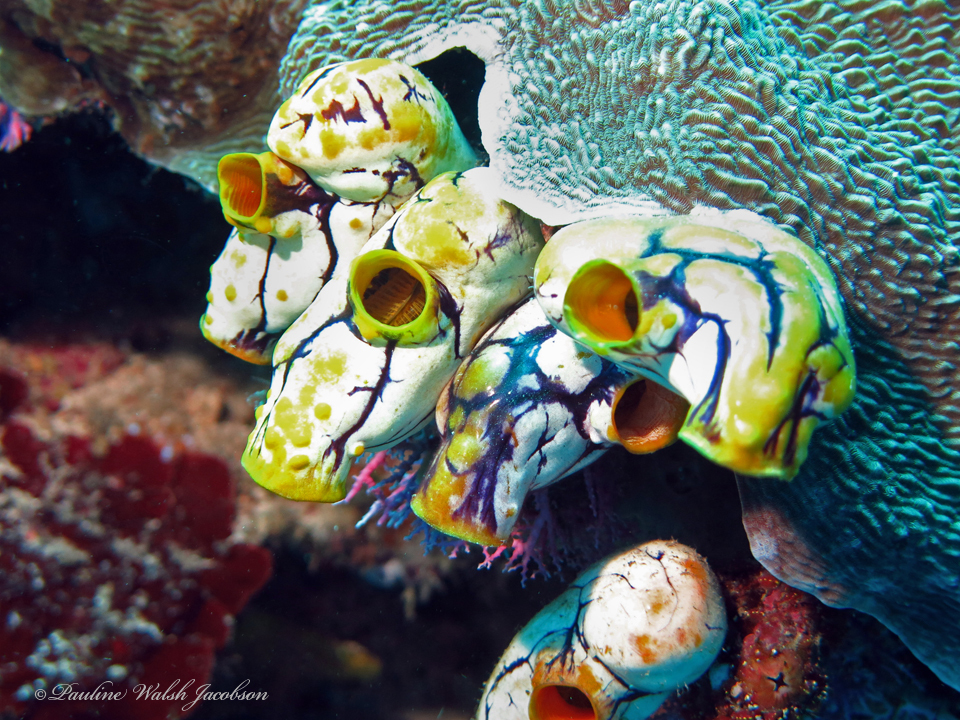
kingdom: Animalia
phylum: Chordata
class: Ascidiacea
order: Stolidobranchia
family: Styelidae
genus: Polycarpa
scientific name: Polycarpa aurata
